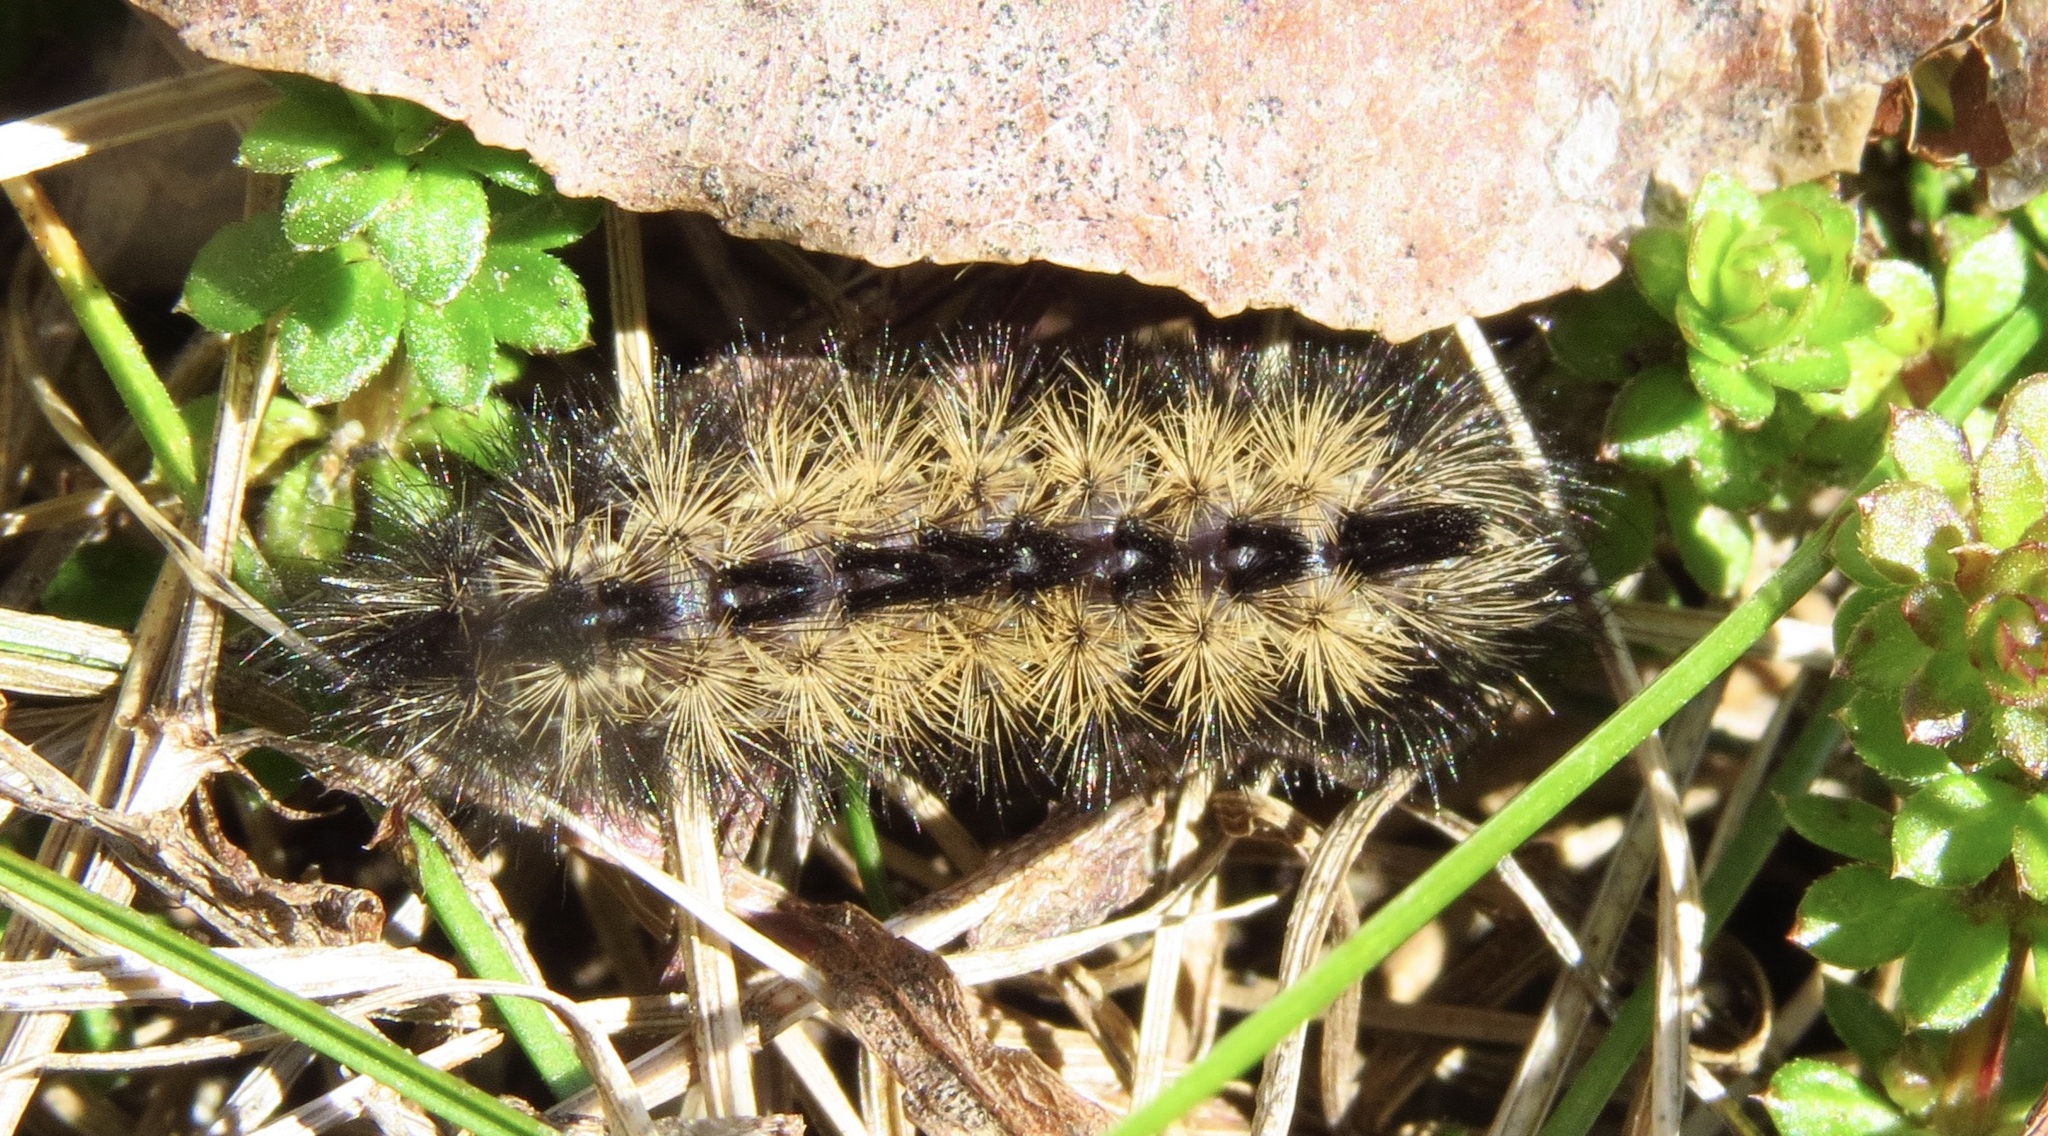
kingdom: Animalia
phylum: Arthropoda
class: Insecta
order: Lepidoptera
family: Erebidae
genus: Ctenucha
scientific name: Ctenucha virginica
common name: Virginia ctenucha moth
